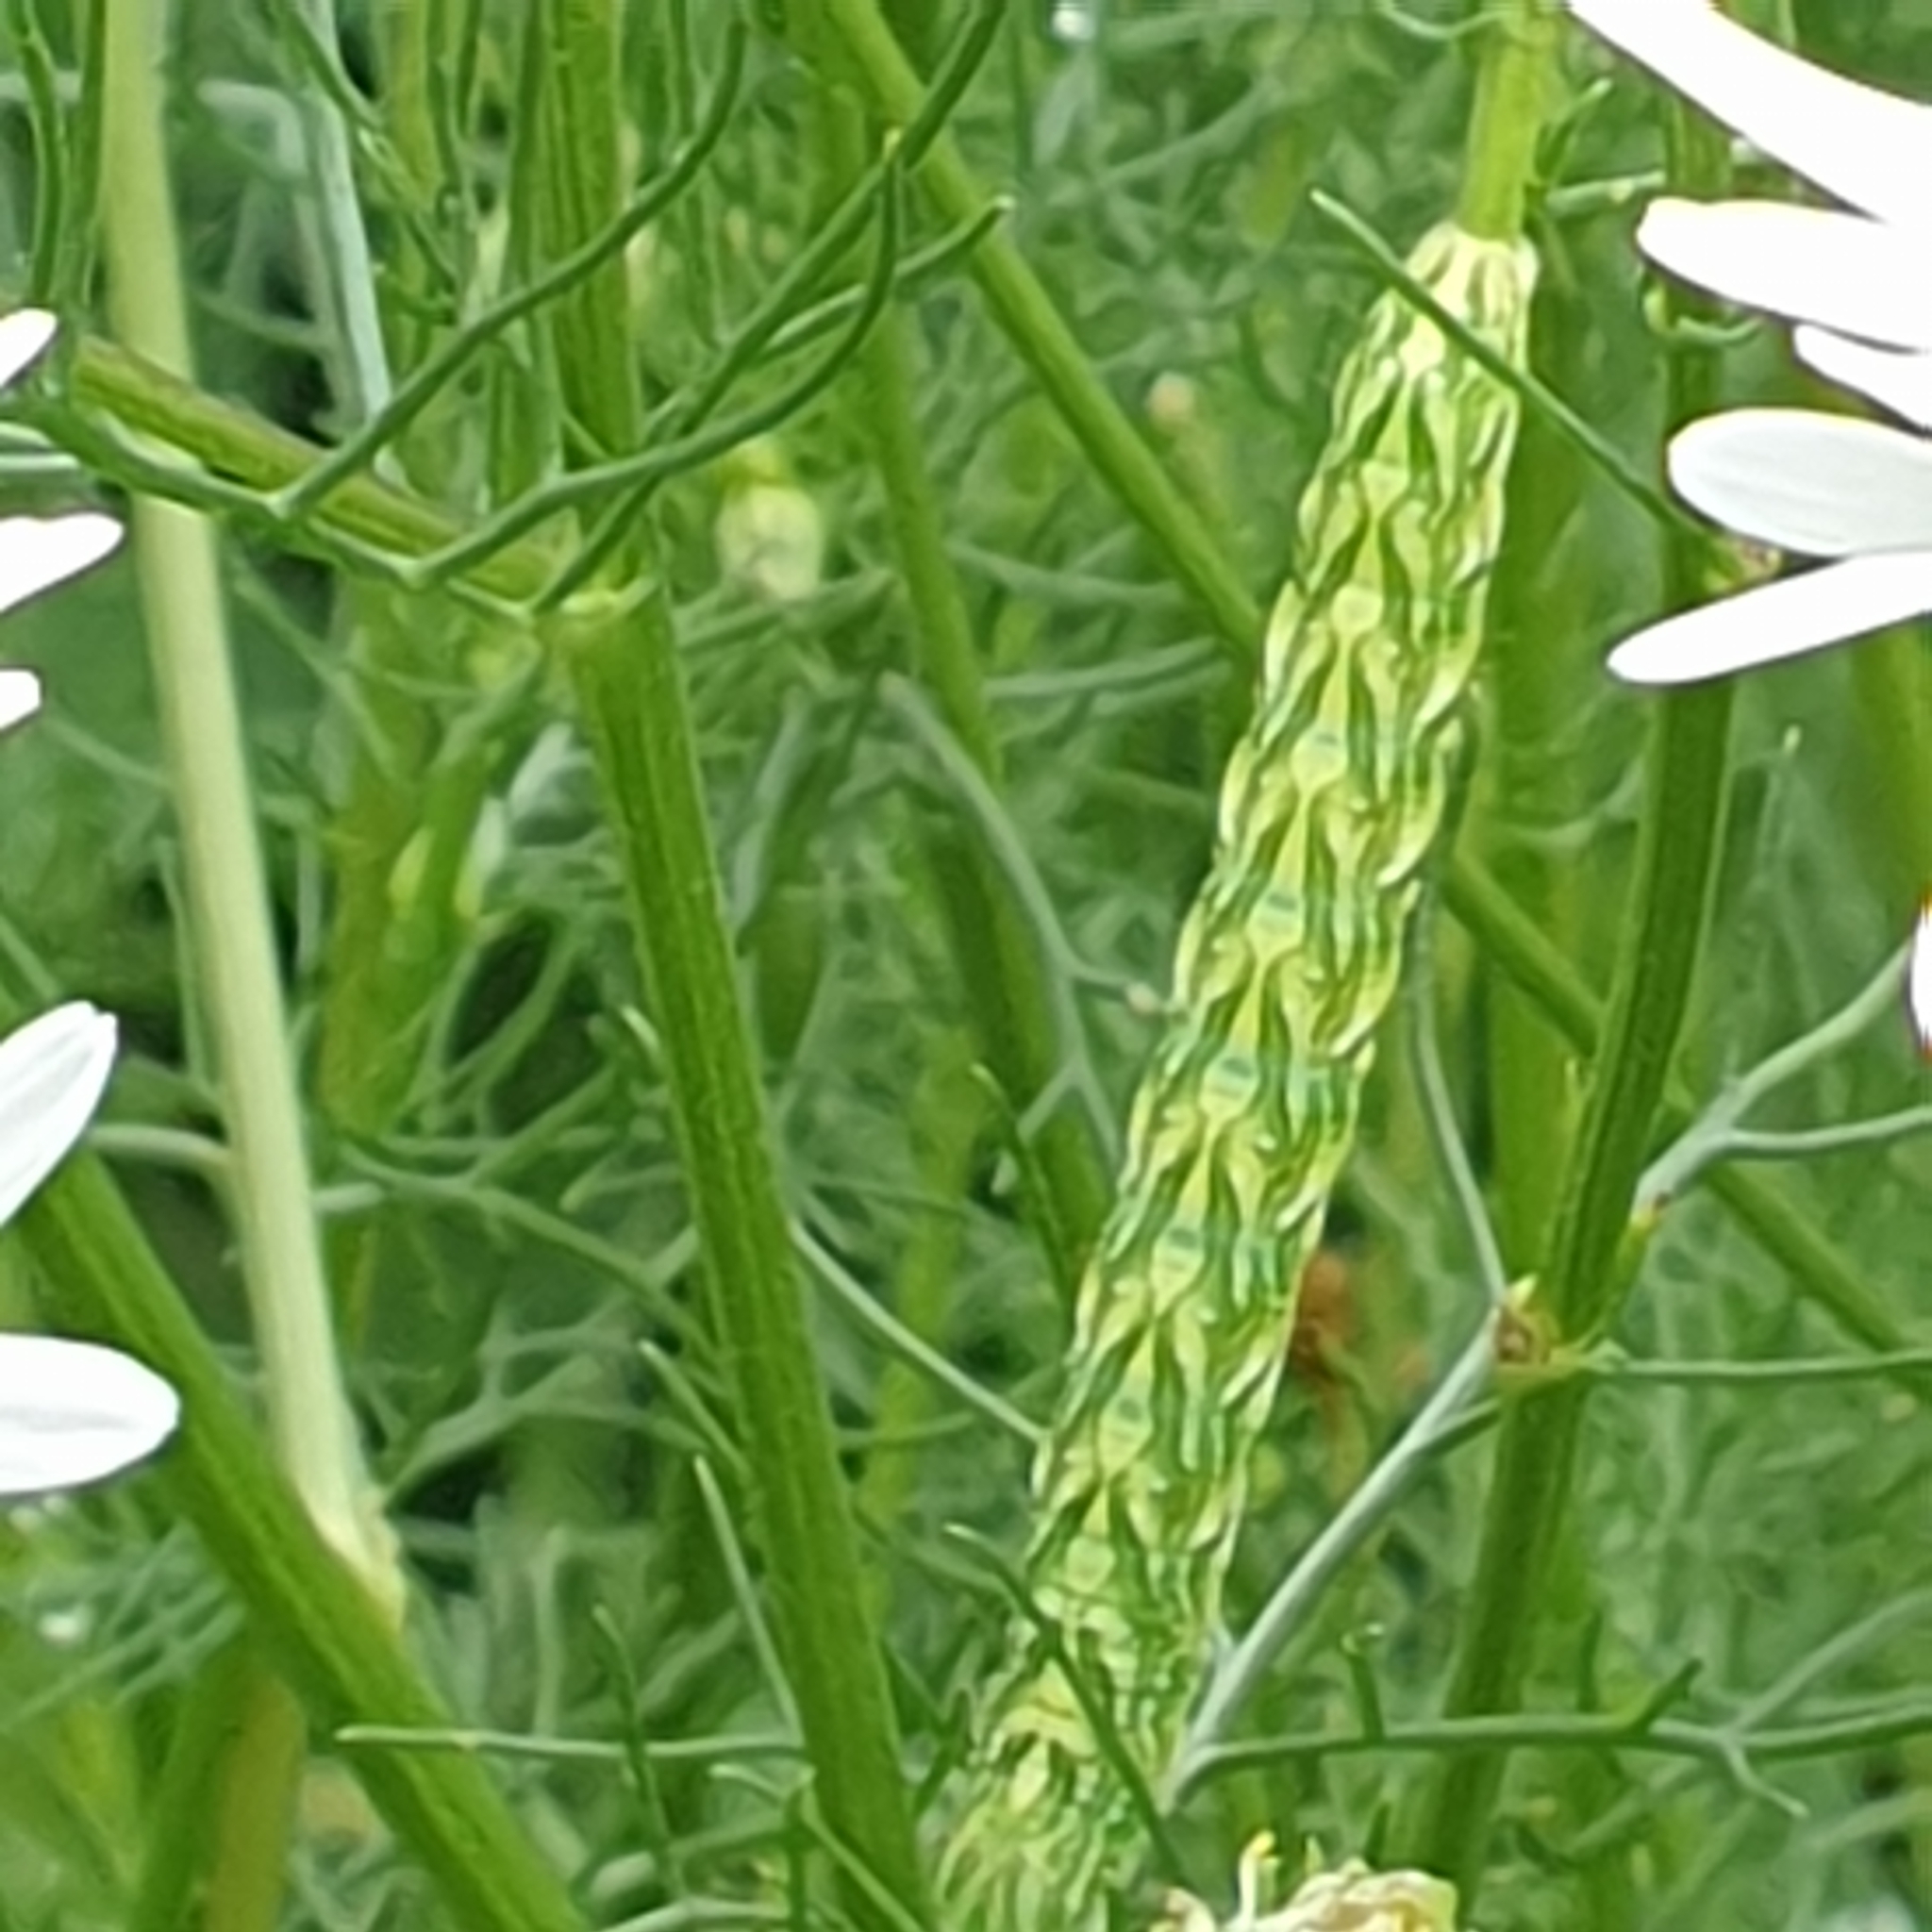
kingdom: Animalia
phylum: Arthropoda
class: Insecta
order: Lepidoptera
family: Noctuidae
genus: Cucullia
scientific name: Cucullia chamomillae
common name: Chamomile shark
